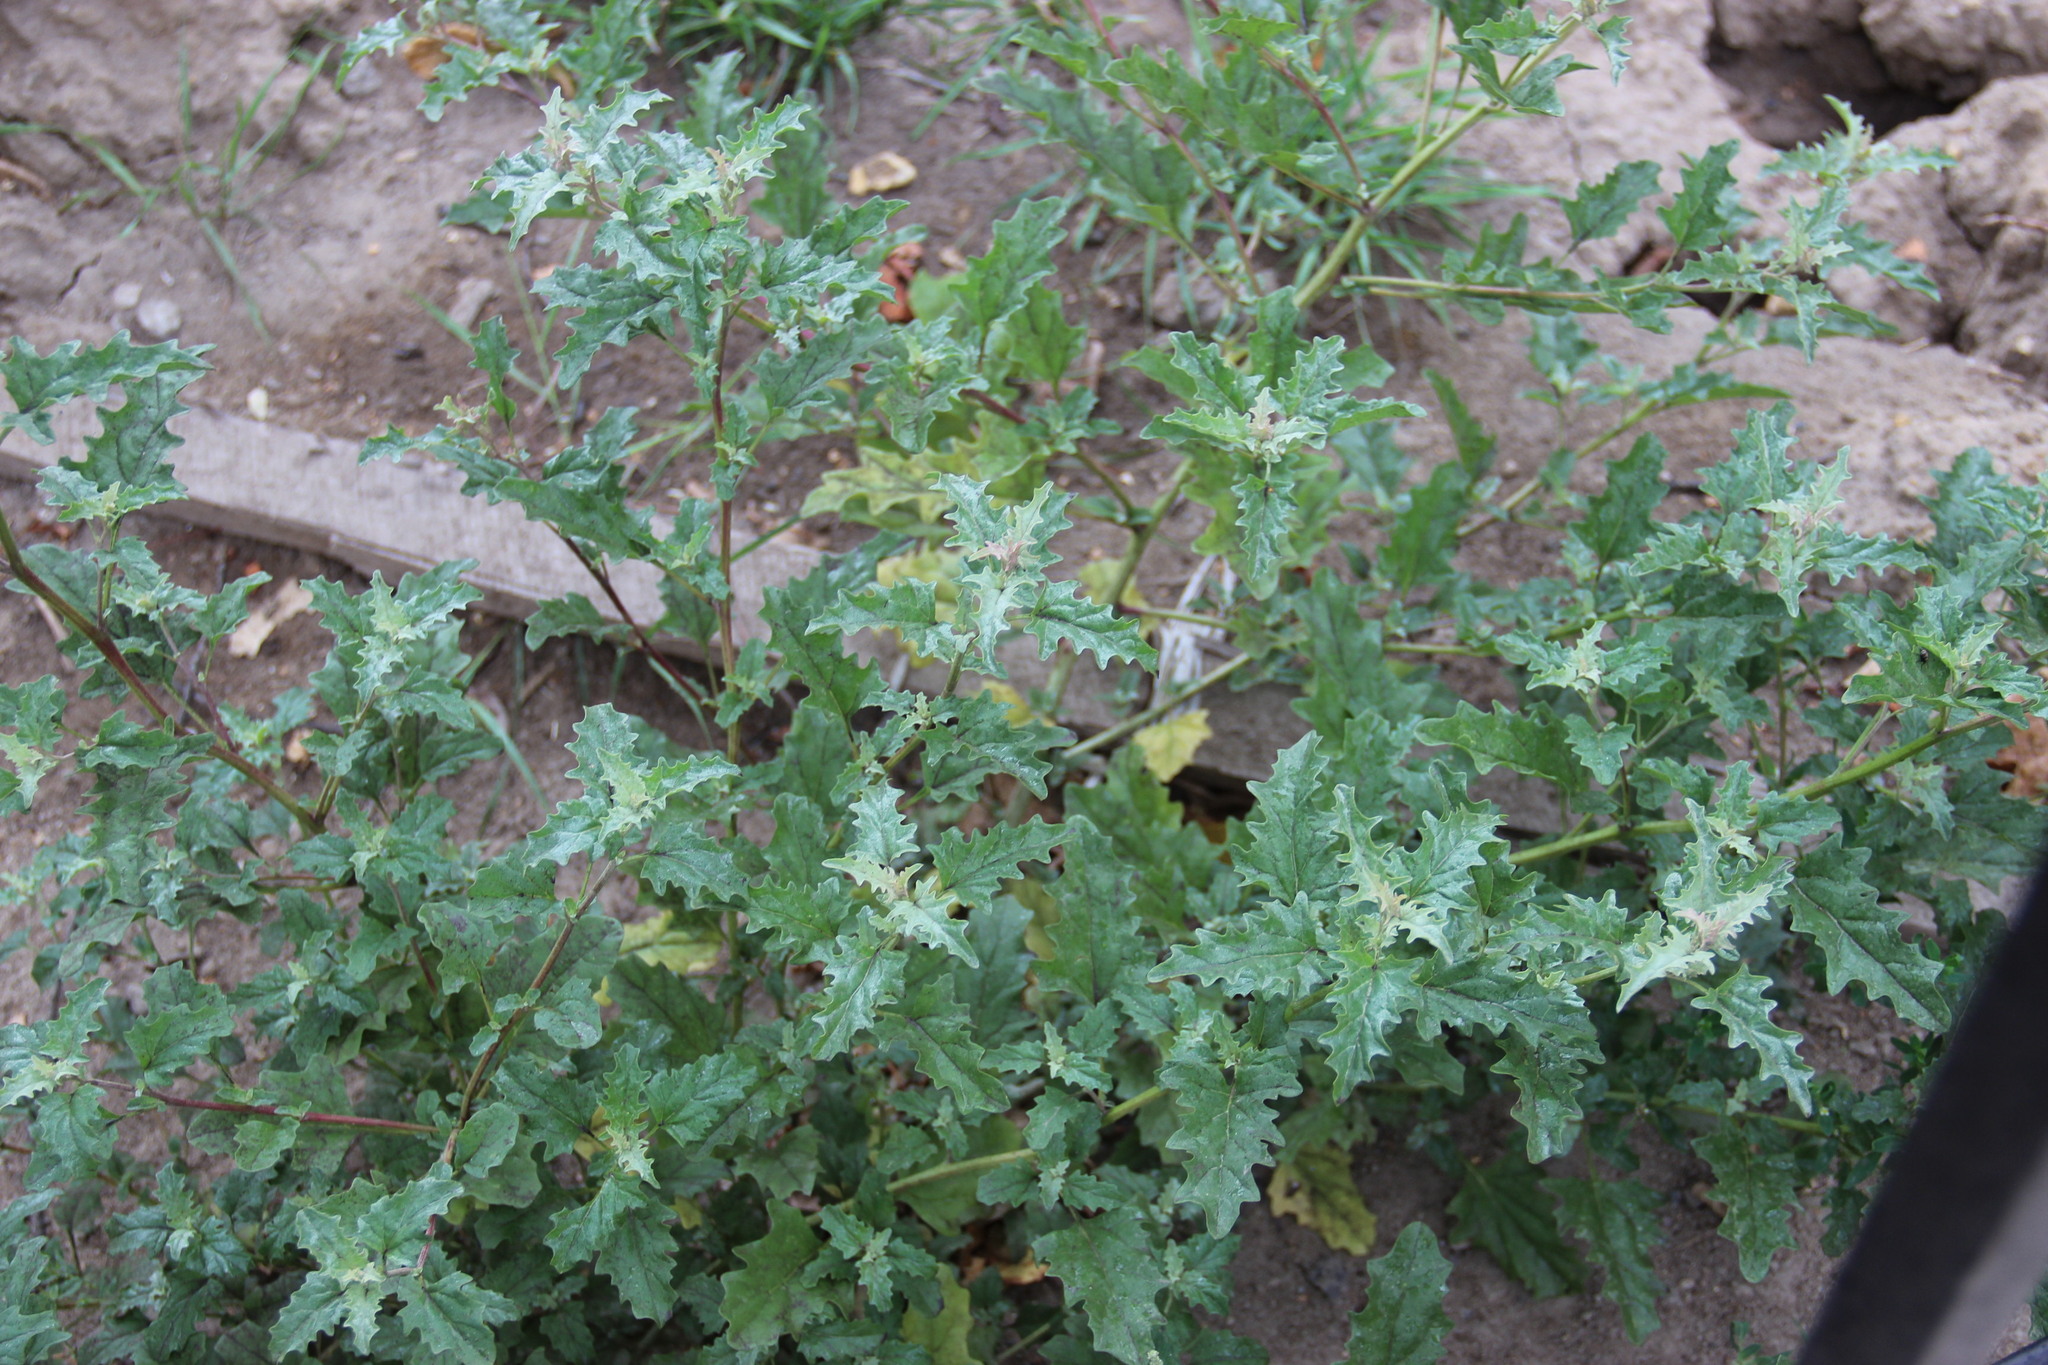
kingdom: Plantae
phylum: Tracheophyta
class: Magnoliopsida
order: Caryophyllales
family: Amaranthaceae
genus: Atriplex
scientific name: Atriplex tatarica
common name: Tatarian orache
